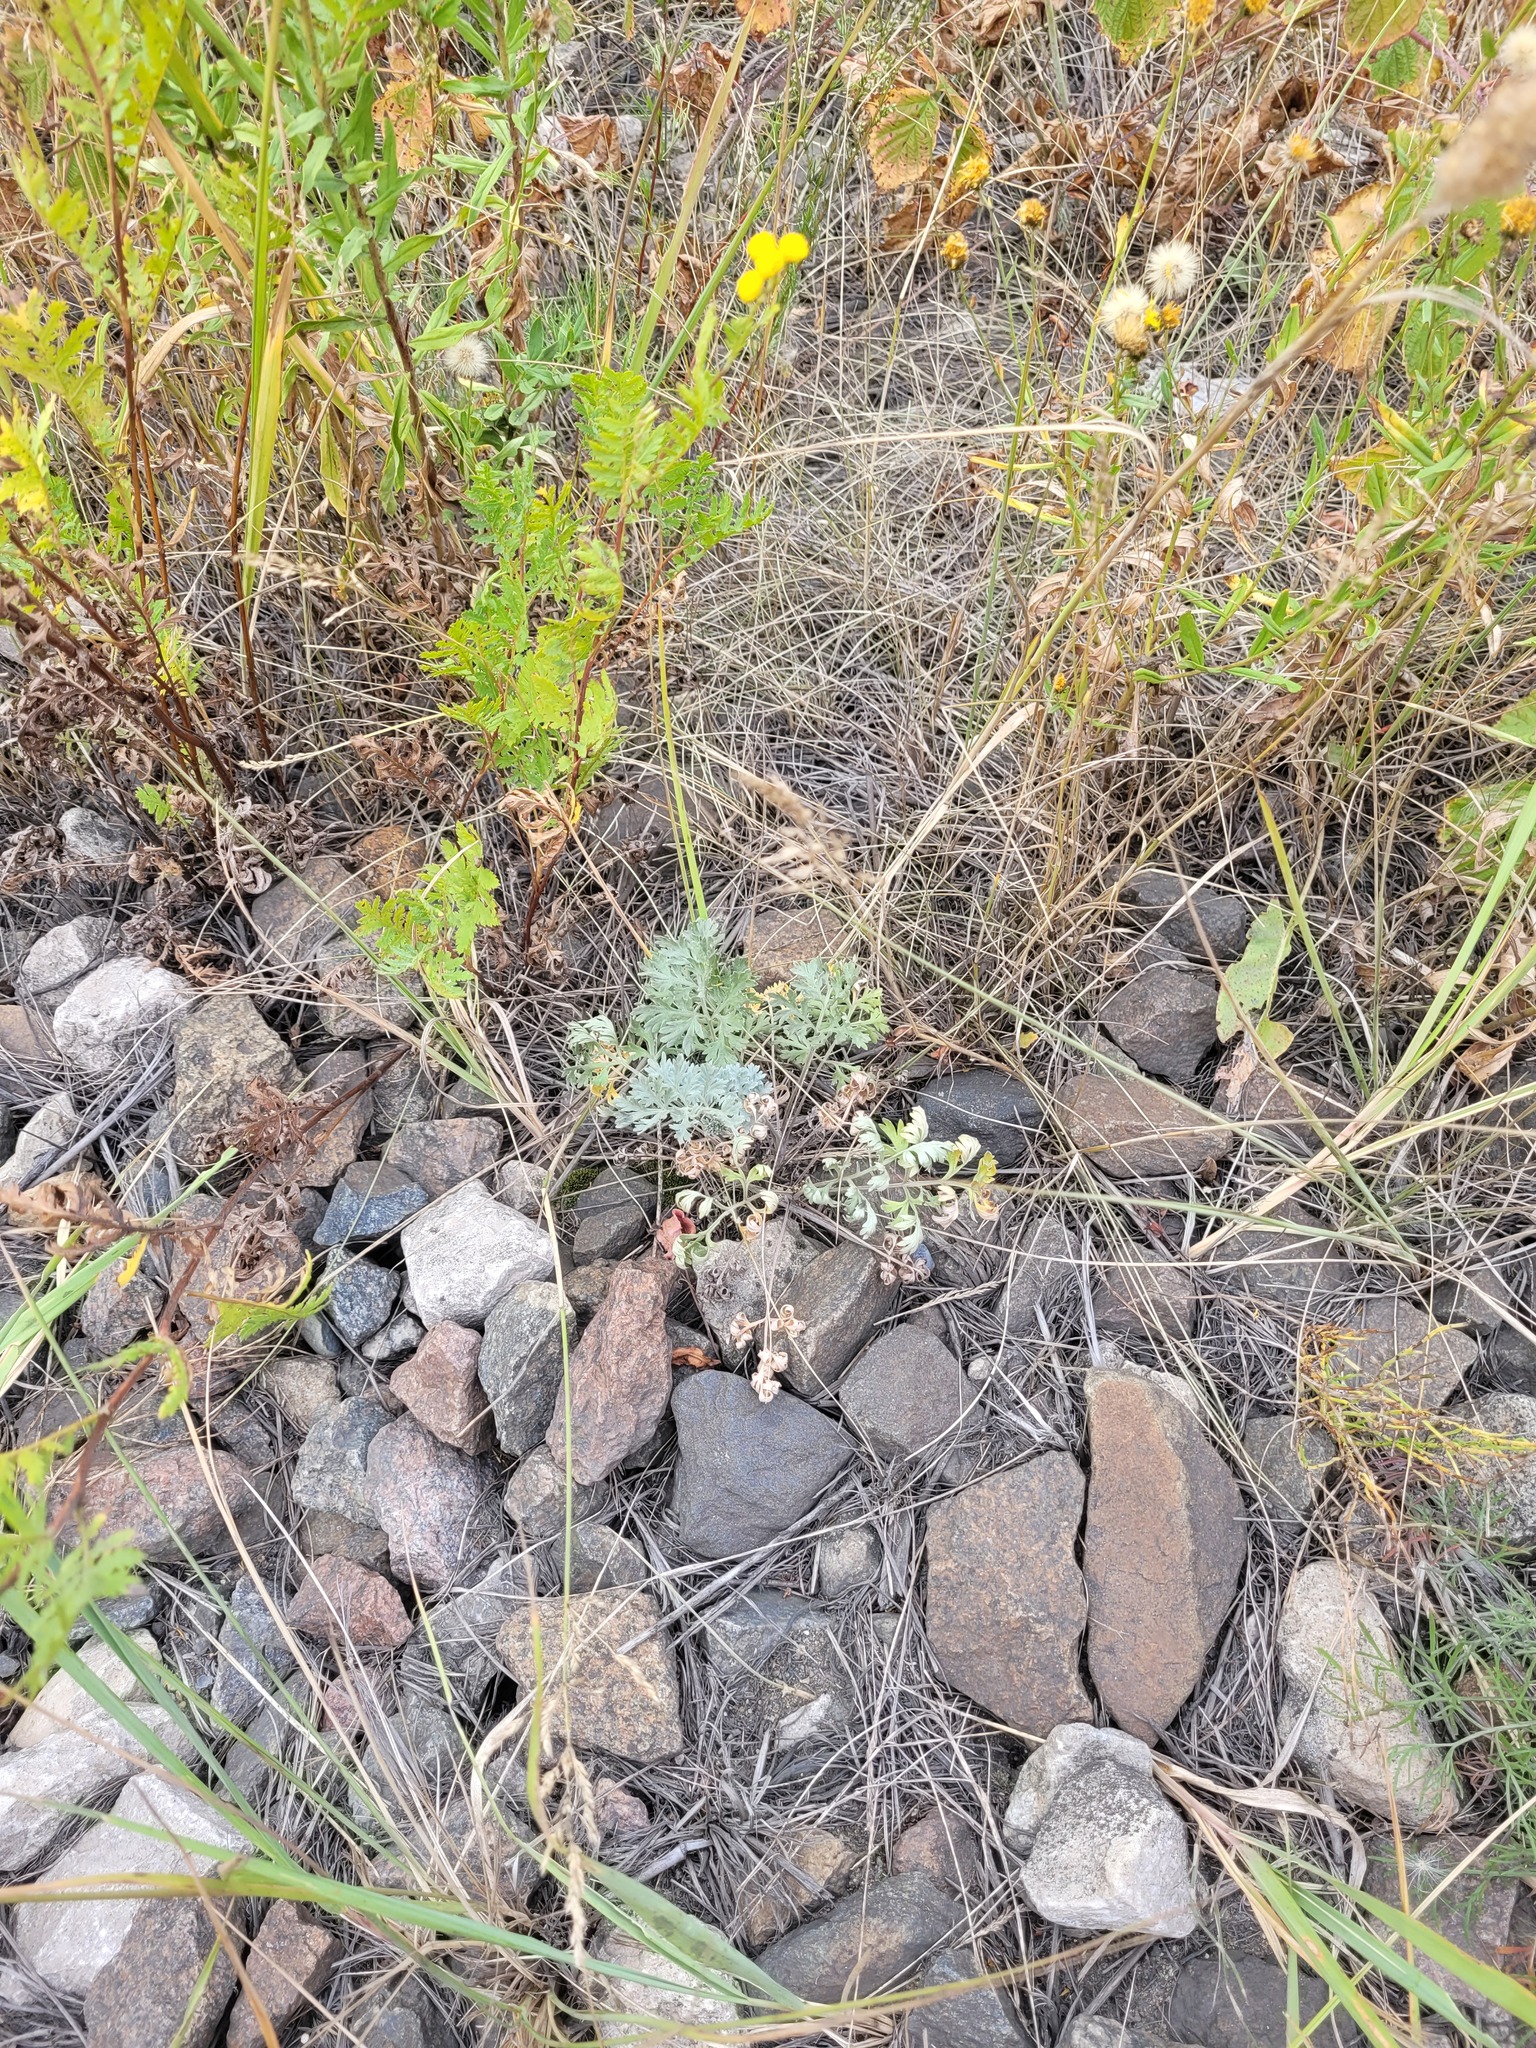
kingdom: Plantae
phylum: Tracheophyta
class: Magnoliopsida
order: Asterales
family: Asteraceae
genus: Artemisia
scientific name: Artemisia absinthium
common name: Wormwood
